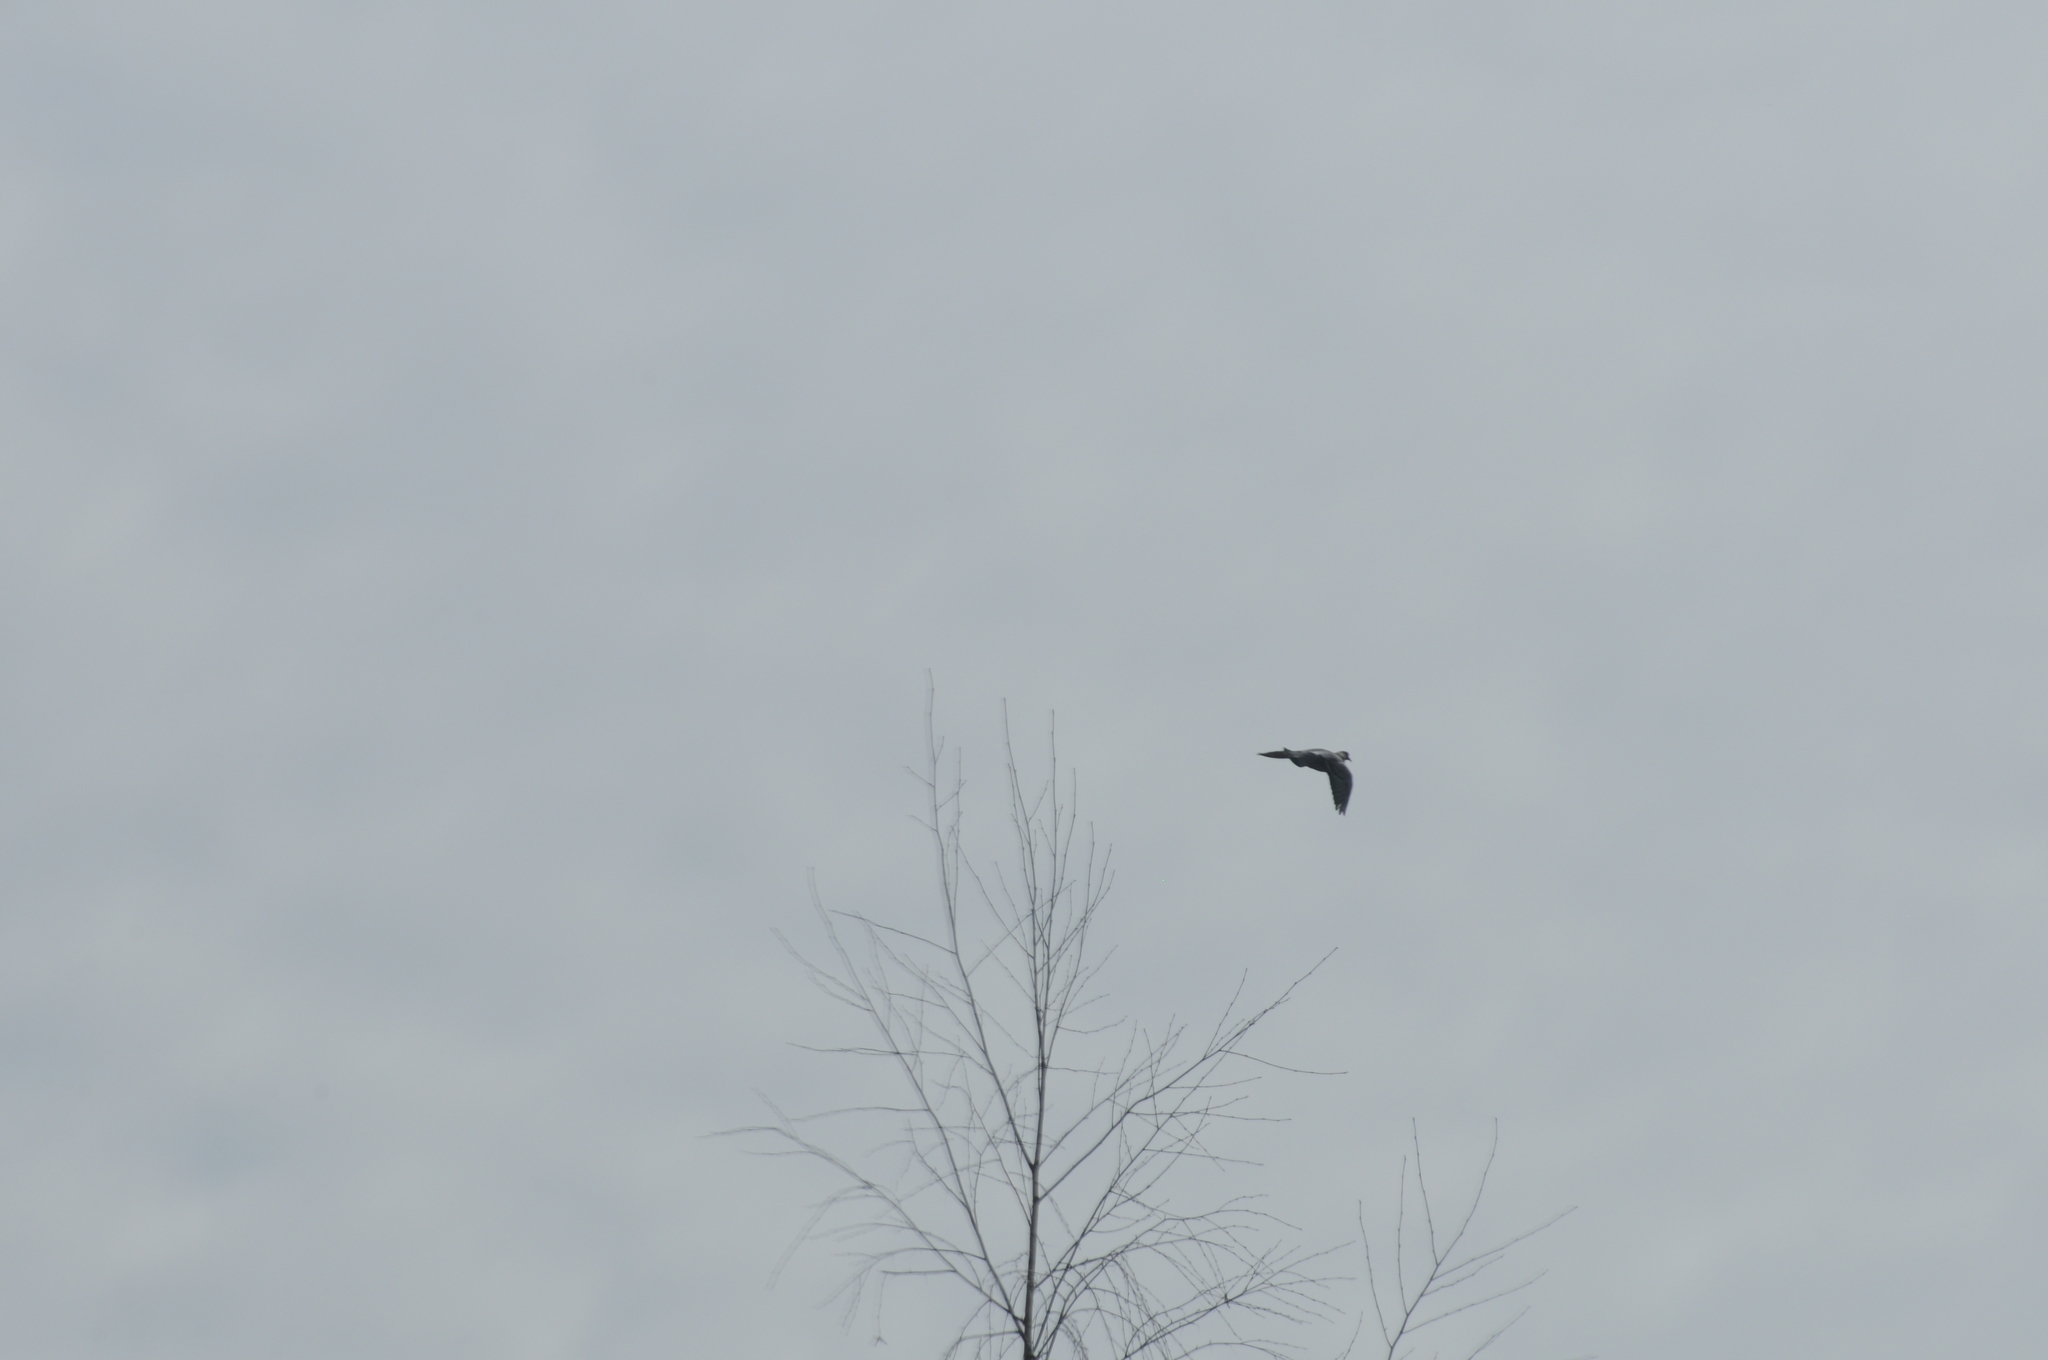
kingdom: Animalia
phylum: Chordata
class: Aves
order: Columbiformes
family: Columbidae
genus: Columba
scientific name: Columba palumbus
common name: Common wood pigeon
